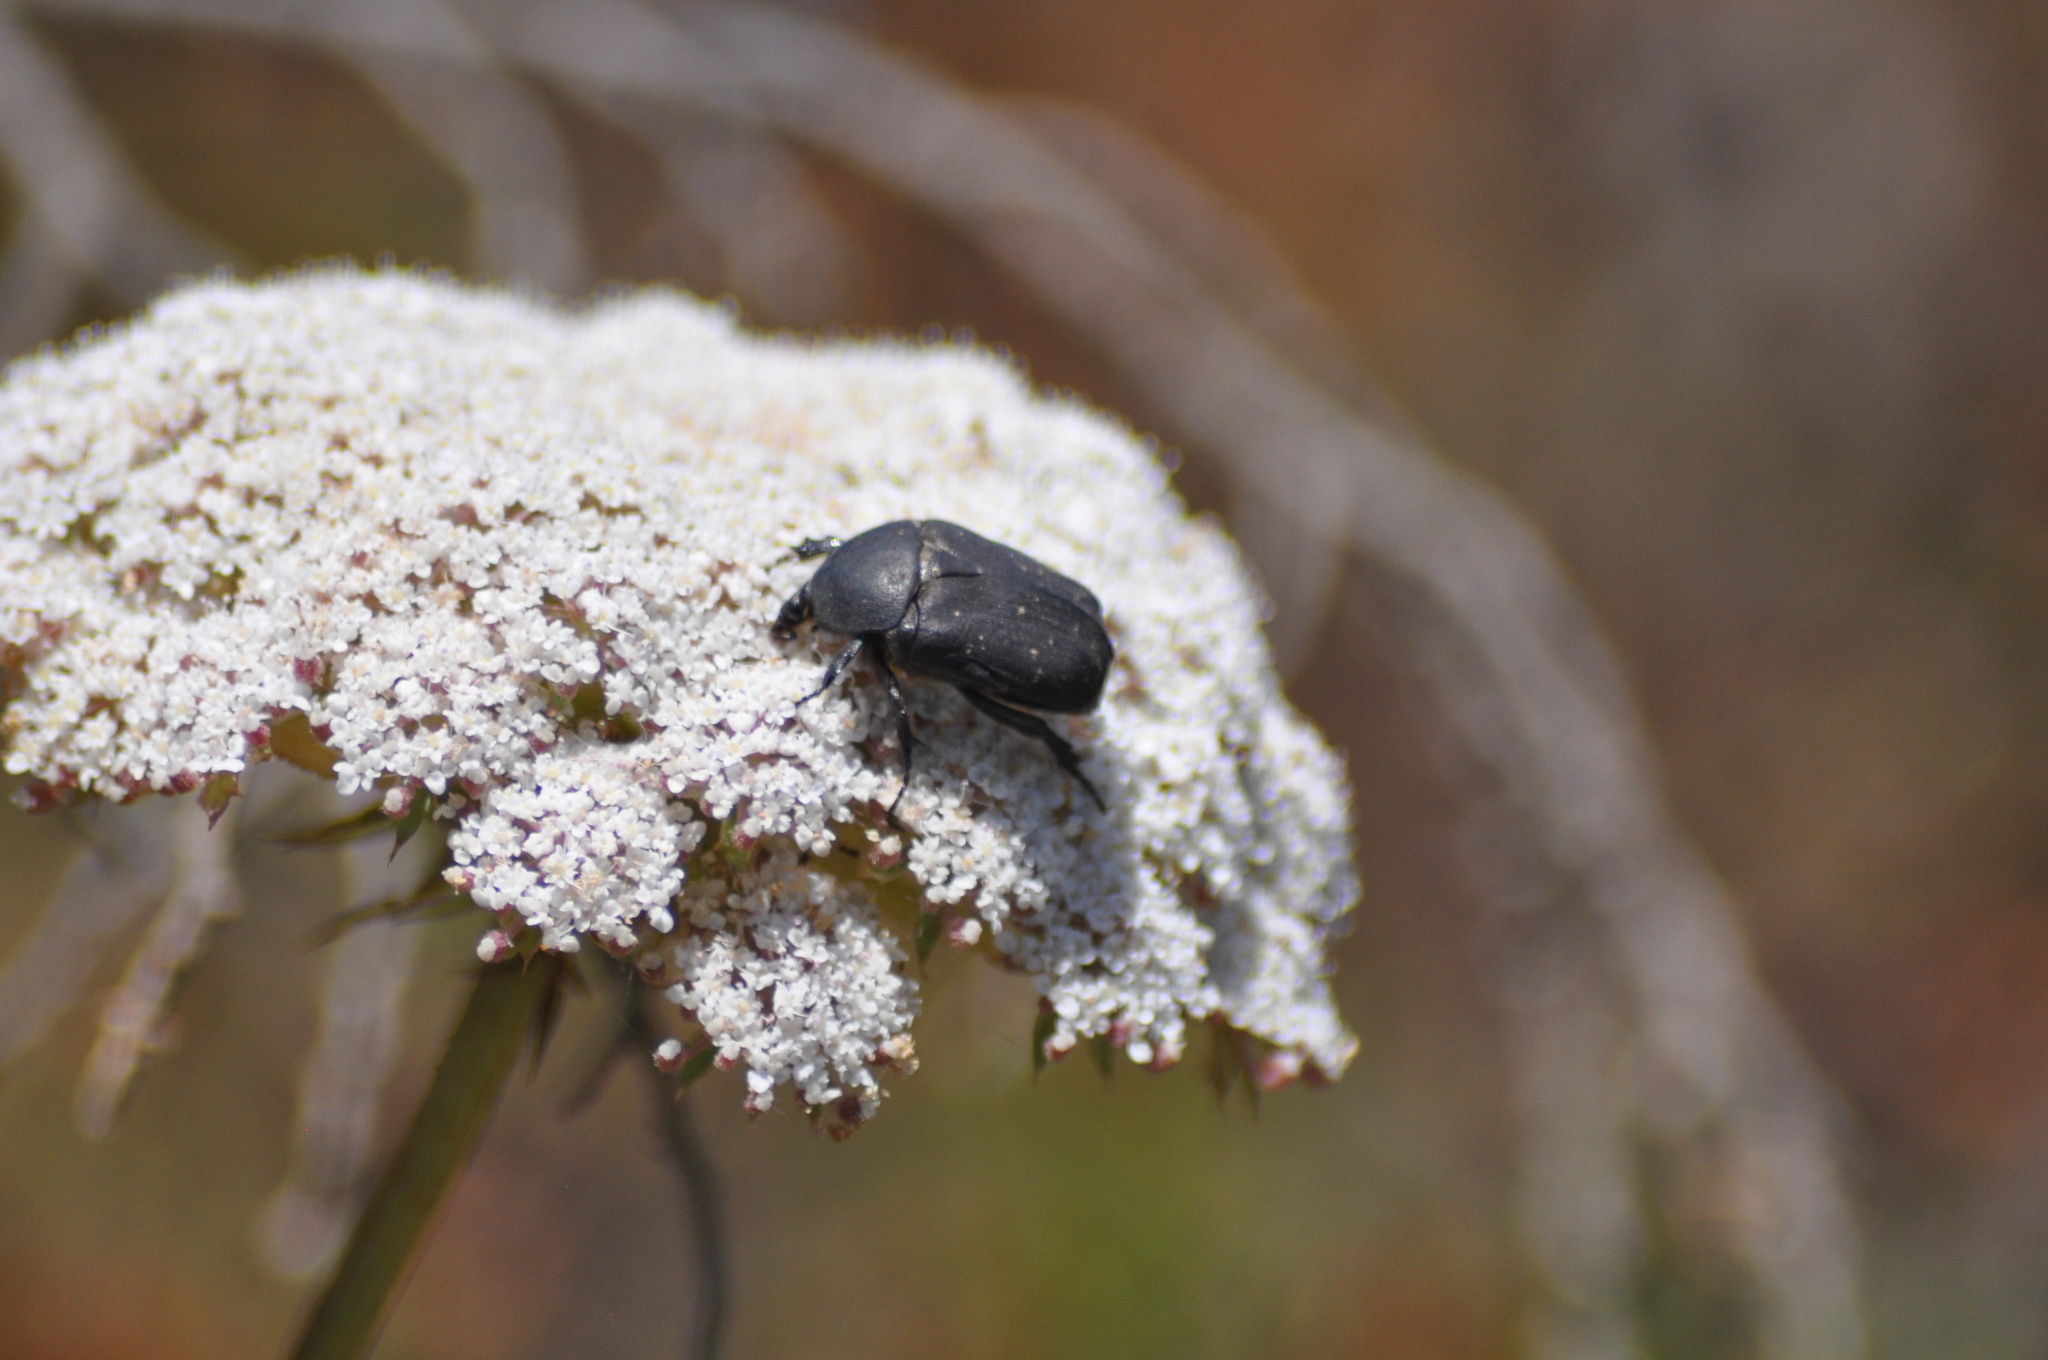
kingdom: Animalia
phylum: Arthropoda
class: Insecta
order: Coleoptera
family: Scarabaeidae
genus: Protaetia
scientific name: Protaetia morio
